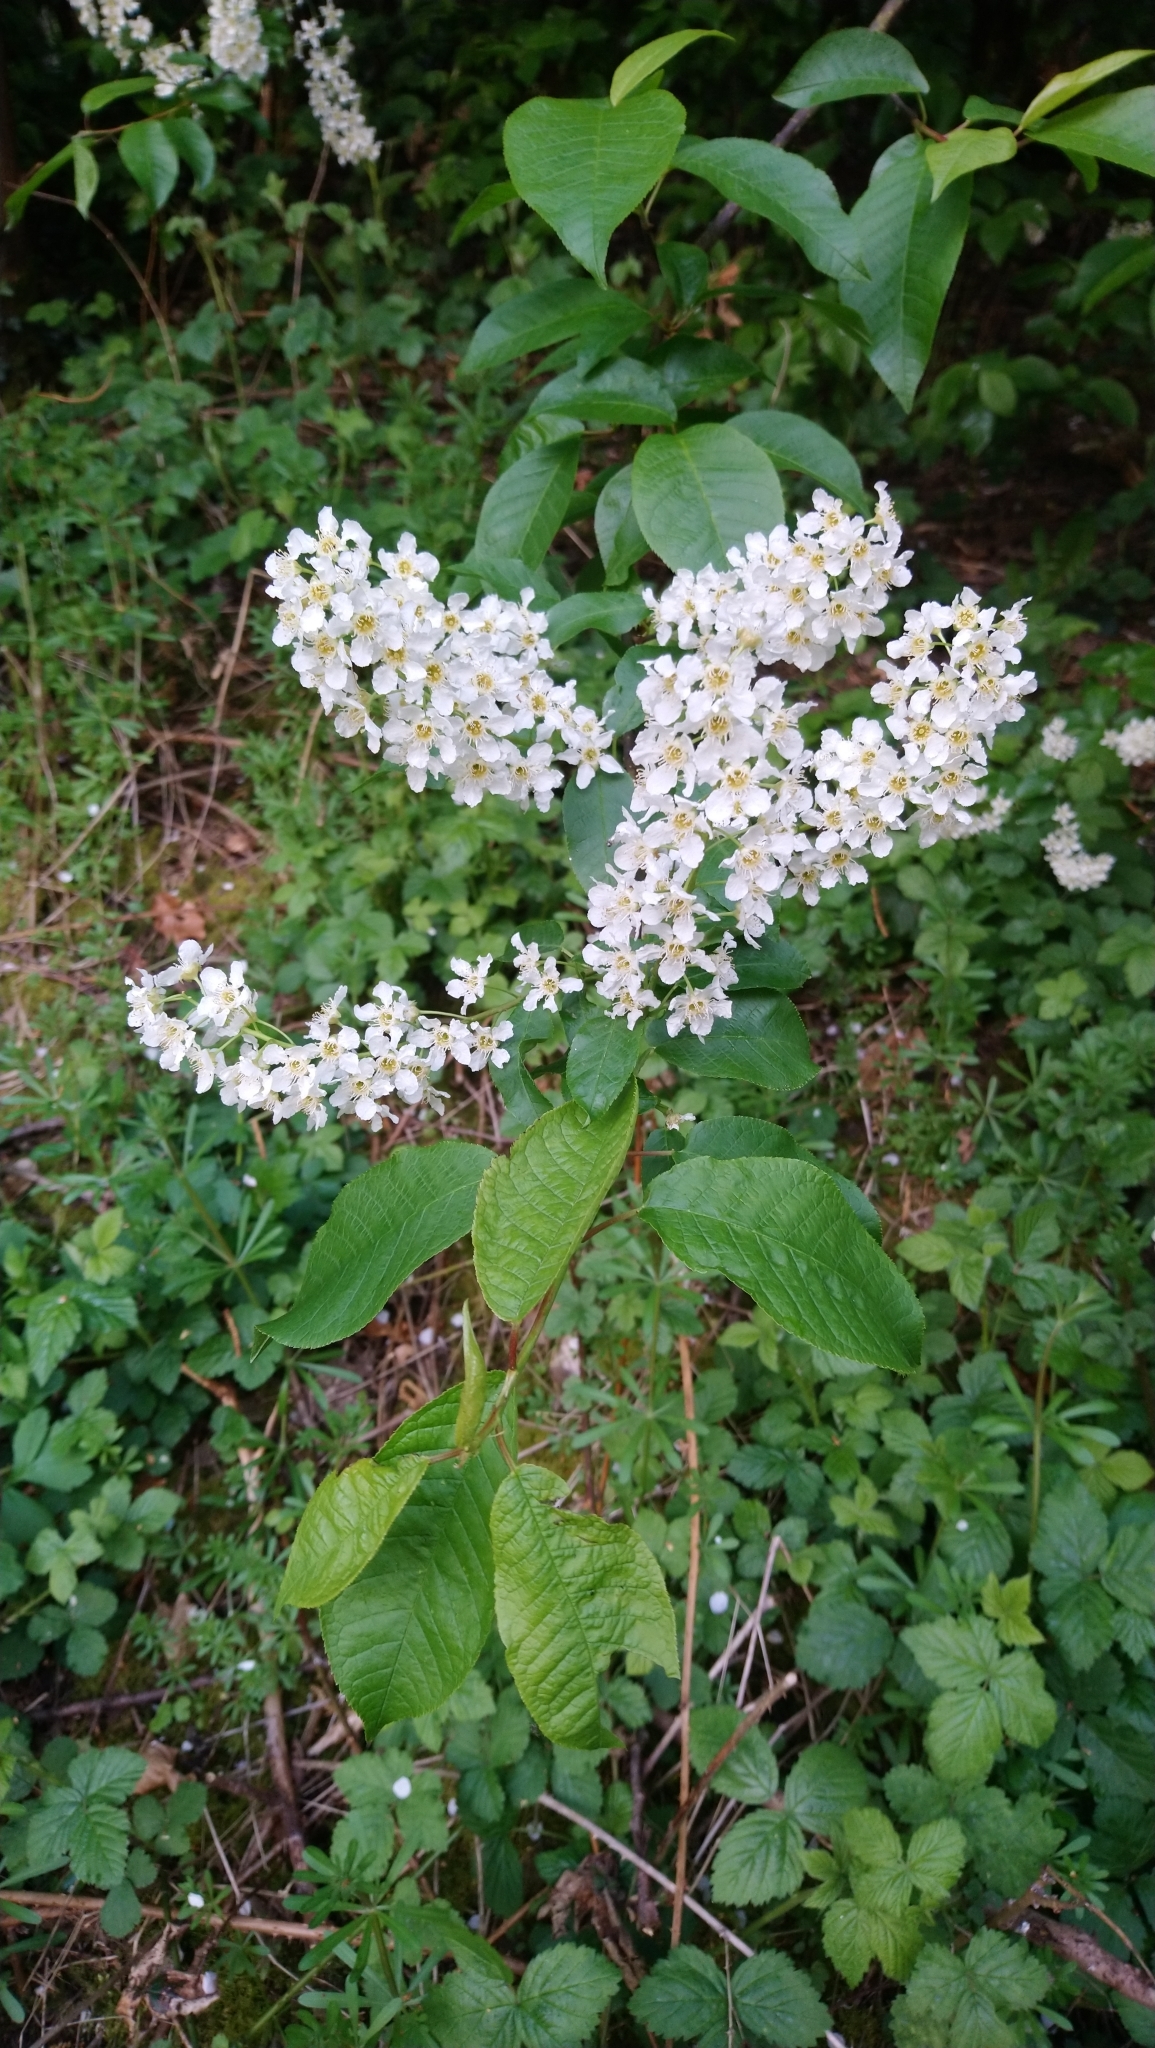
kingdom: Plantae
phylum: Tracheophyta
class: Magnoliopsida
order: Rosales
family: Rosaceae
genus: Prunus
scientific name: Prunus padus
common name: Bird cherry
